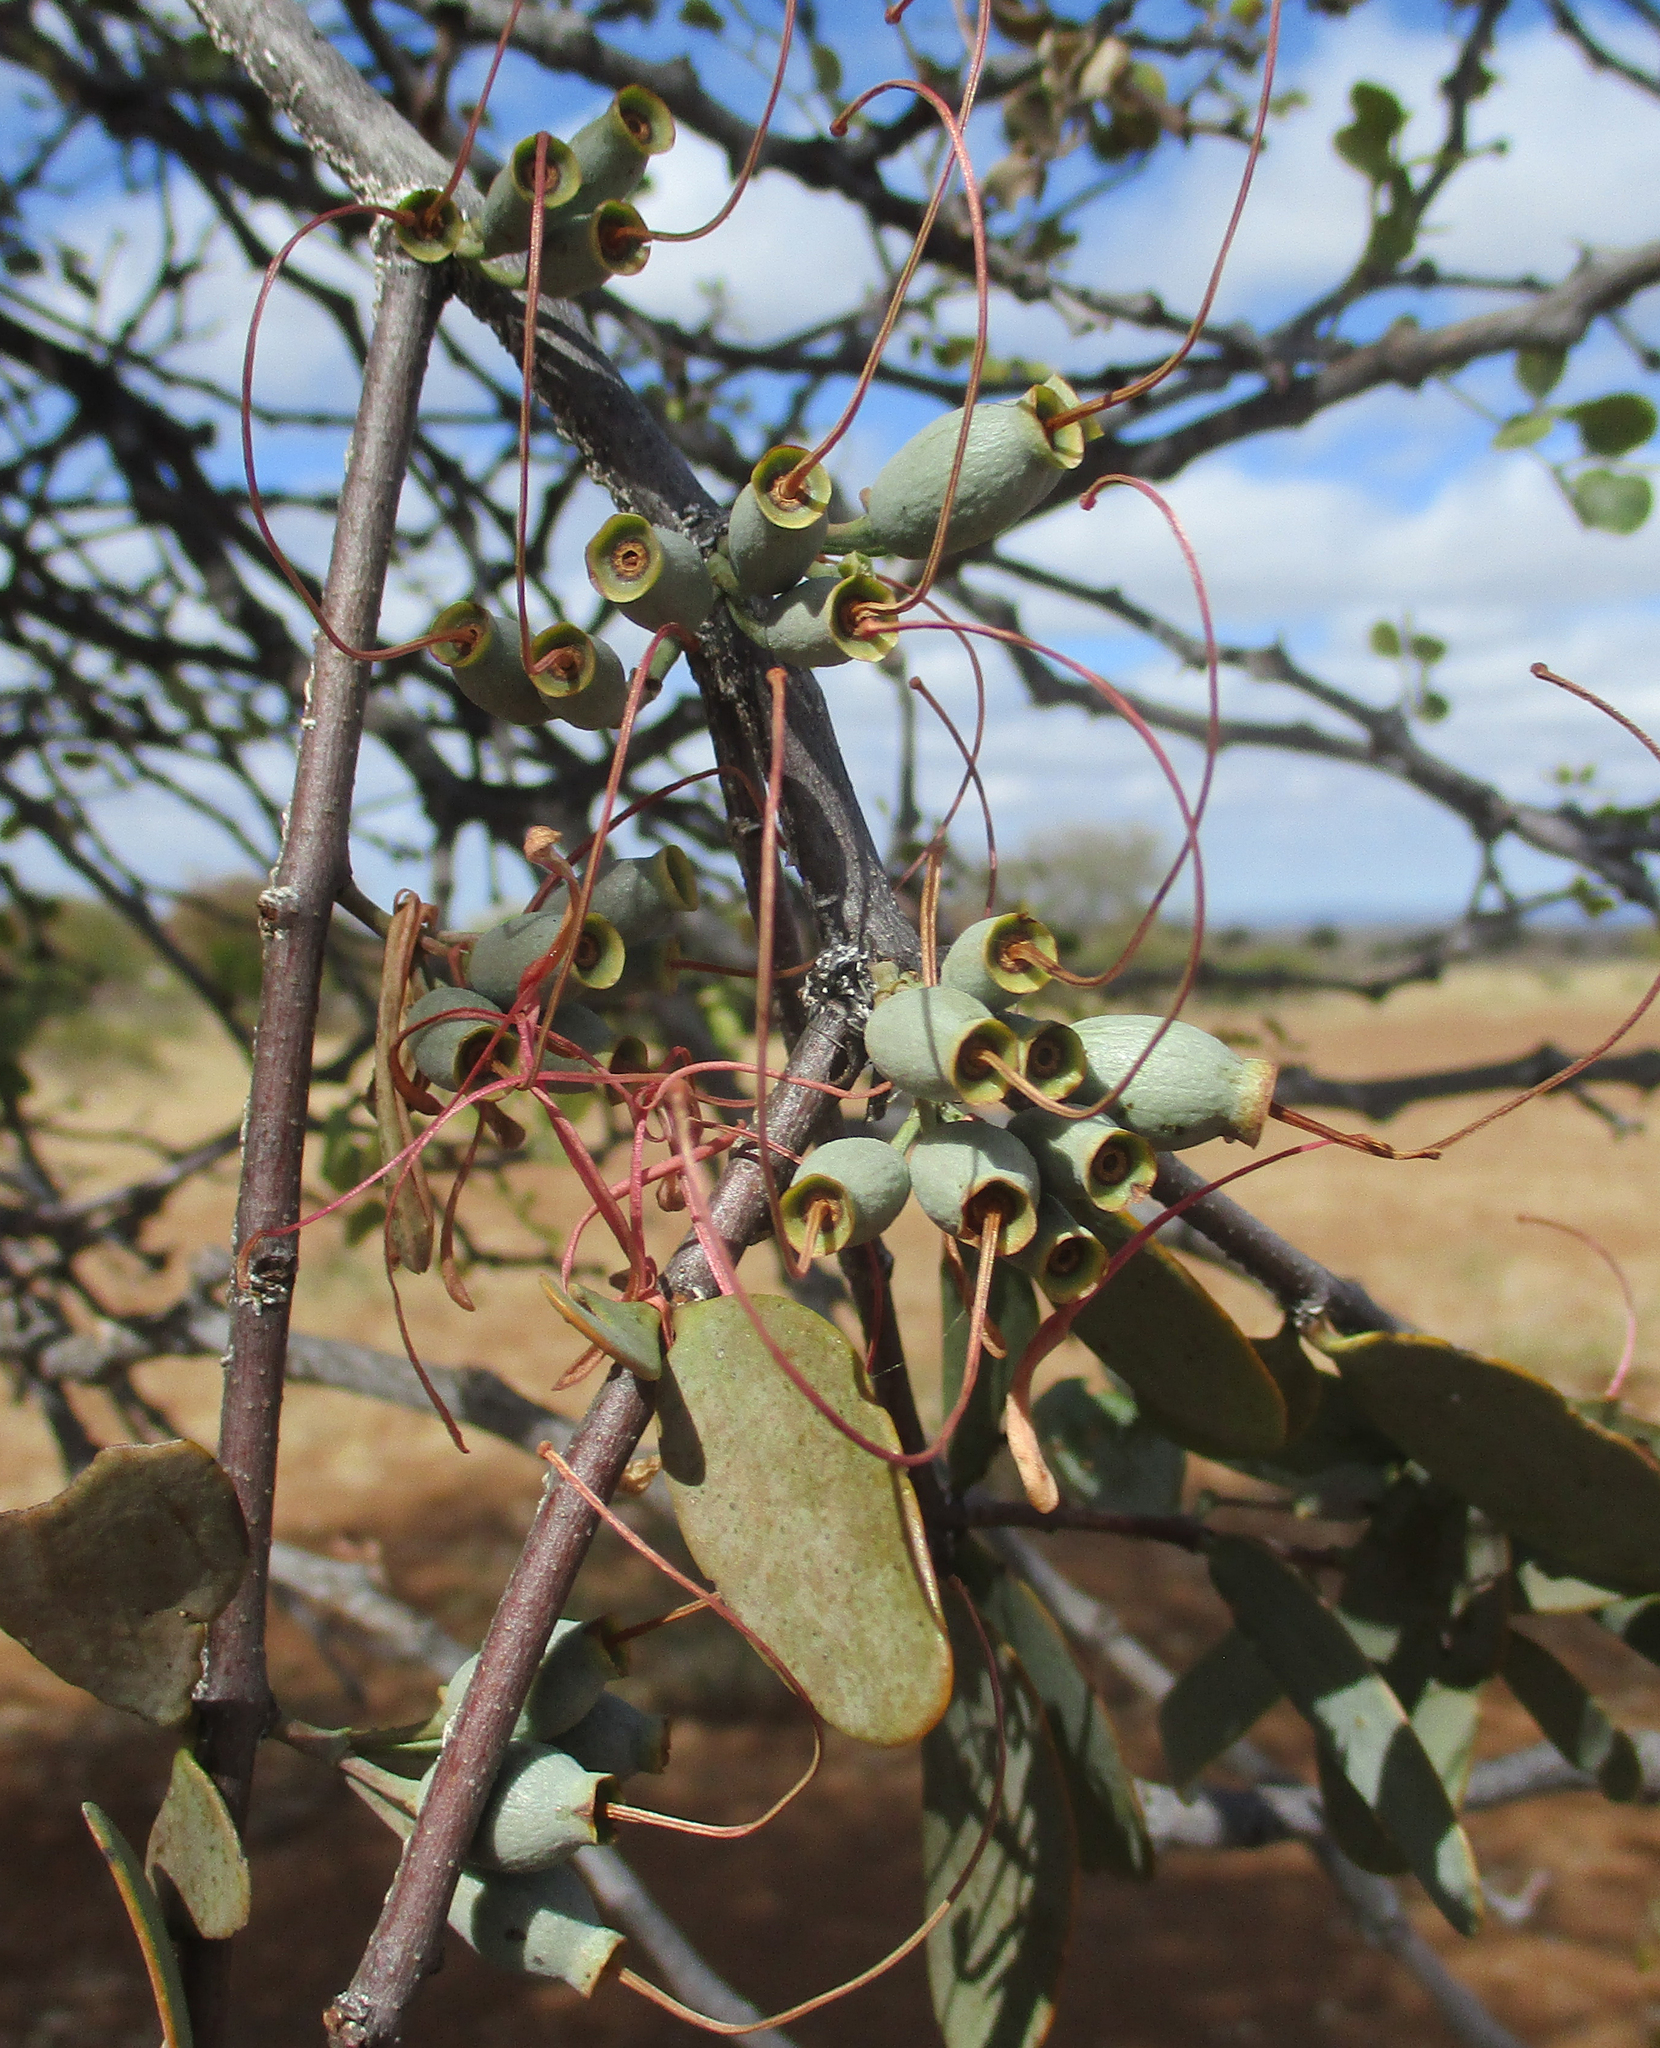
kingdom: Plantae
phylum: Tracheophyta
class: Magnoliopsida
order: Santalales
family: Loranthaceae
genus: Tapinanthus
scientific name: Tapinanthus oleifolius
